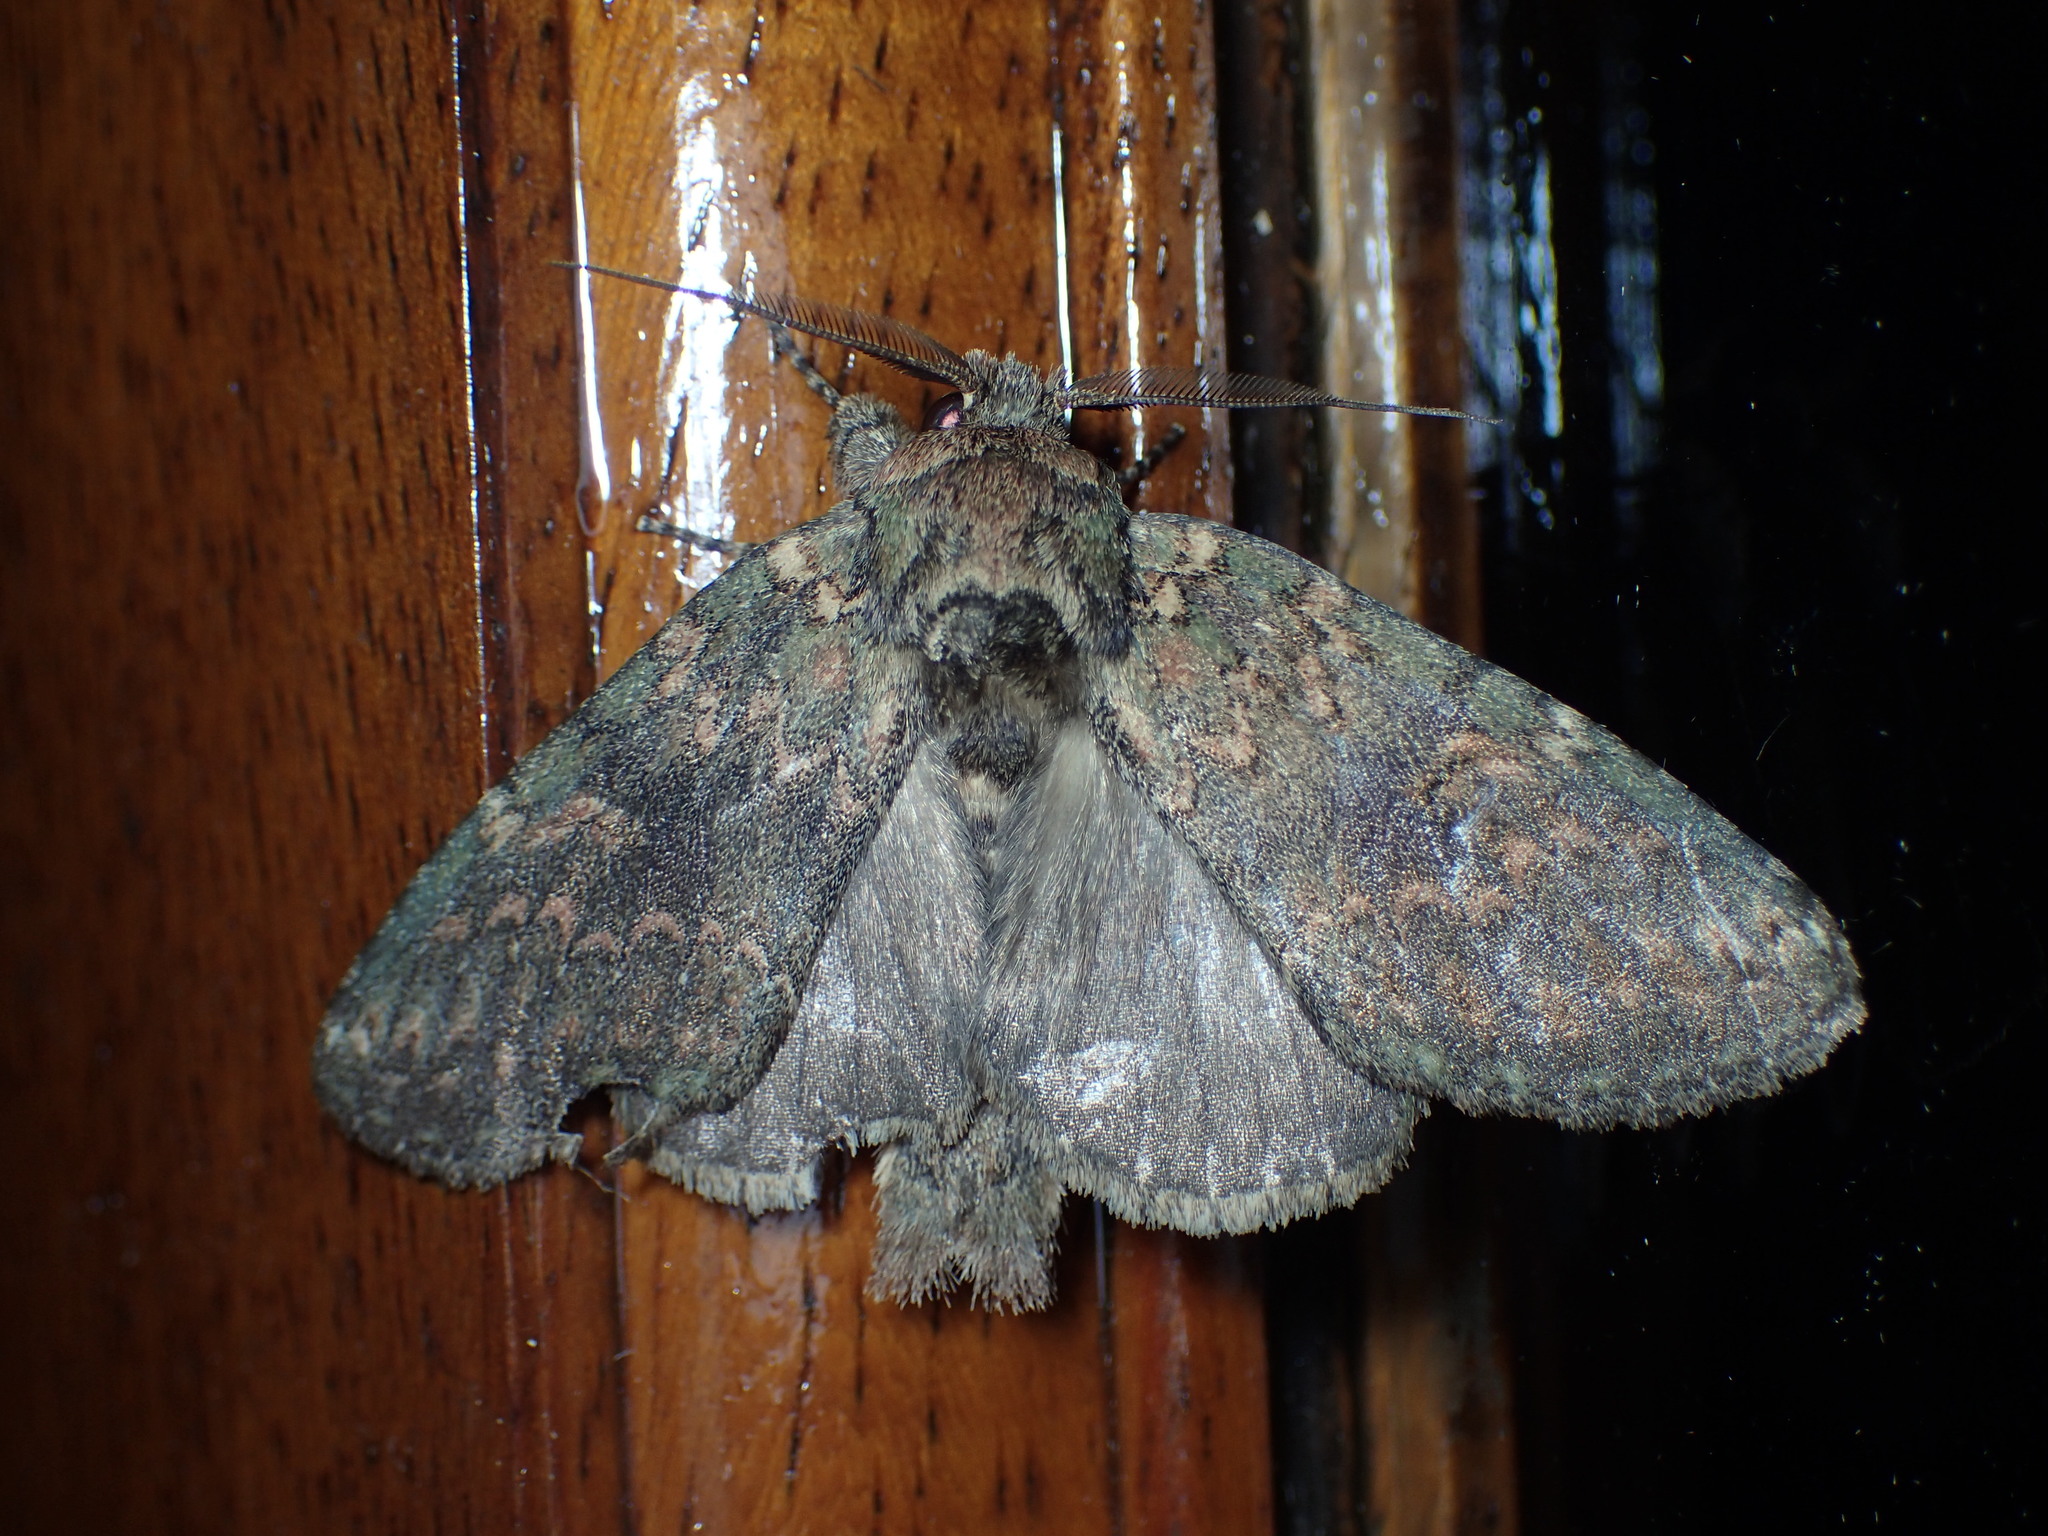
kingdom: Animalia
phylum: Arthropoda
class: Insecta
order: Lepidoptera
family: Notodontidae
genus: Disphragis
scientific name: Disphragis Cecrita biundata
